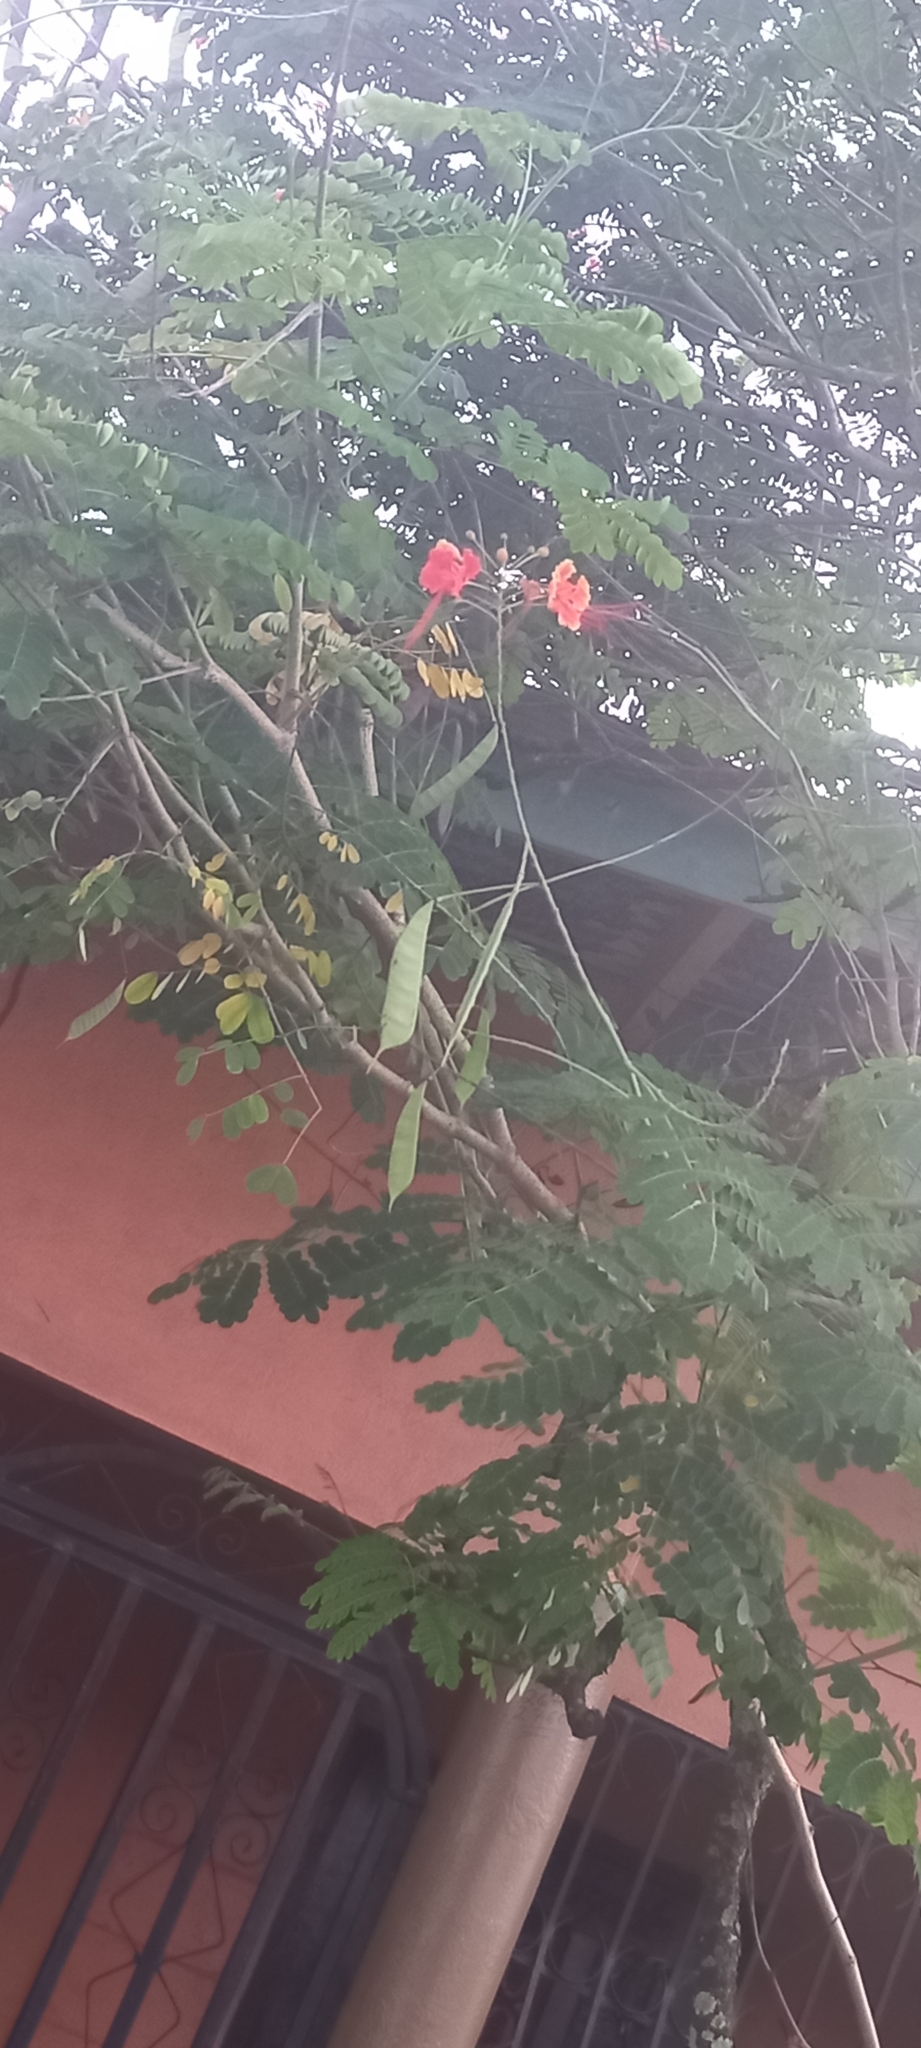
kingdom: Plantae
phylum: Tracheophyta
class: Magnoliopsida
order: Fabales
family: Fabaceae
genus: Caesalpinia
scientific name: Caesalpinia pulcherrima
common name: Pride-of-barbados
